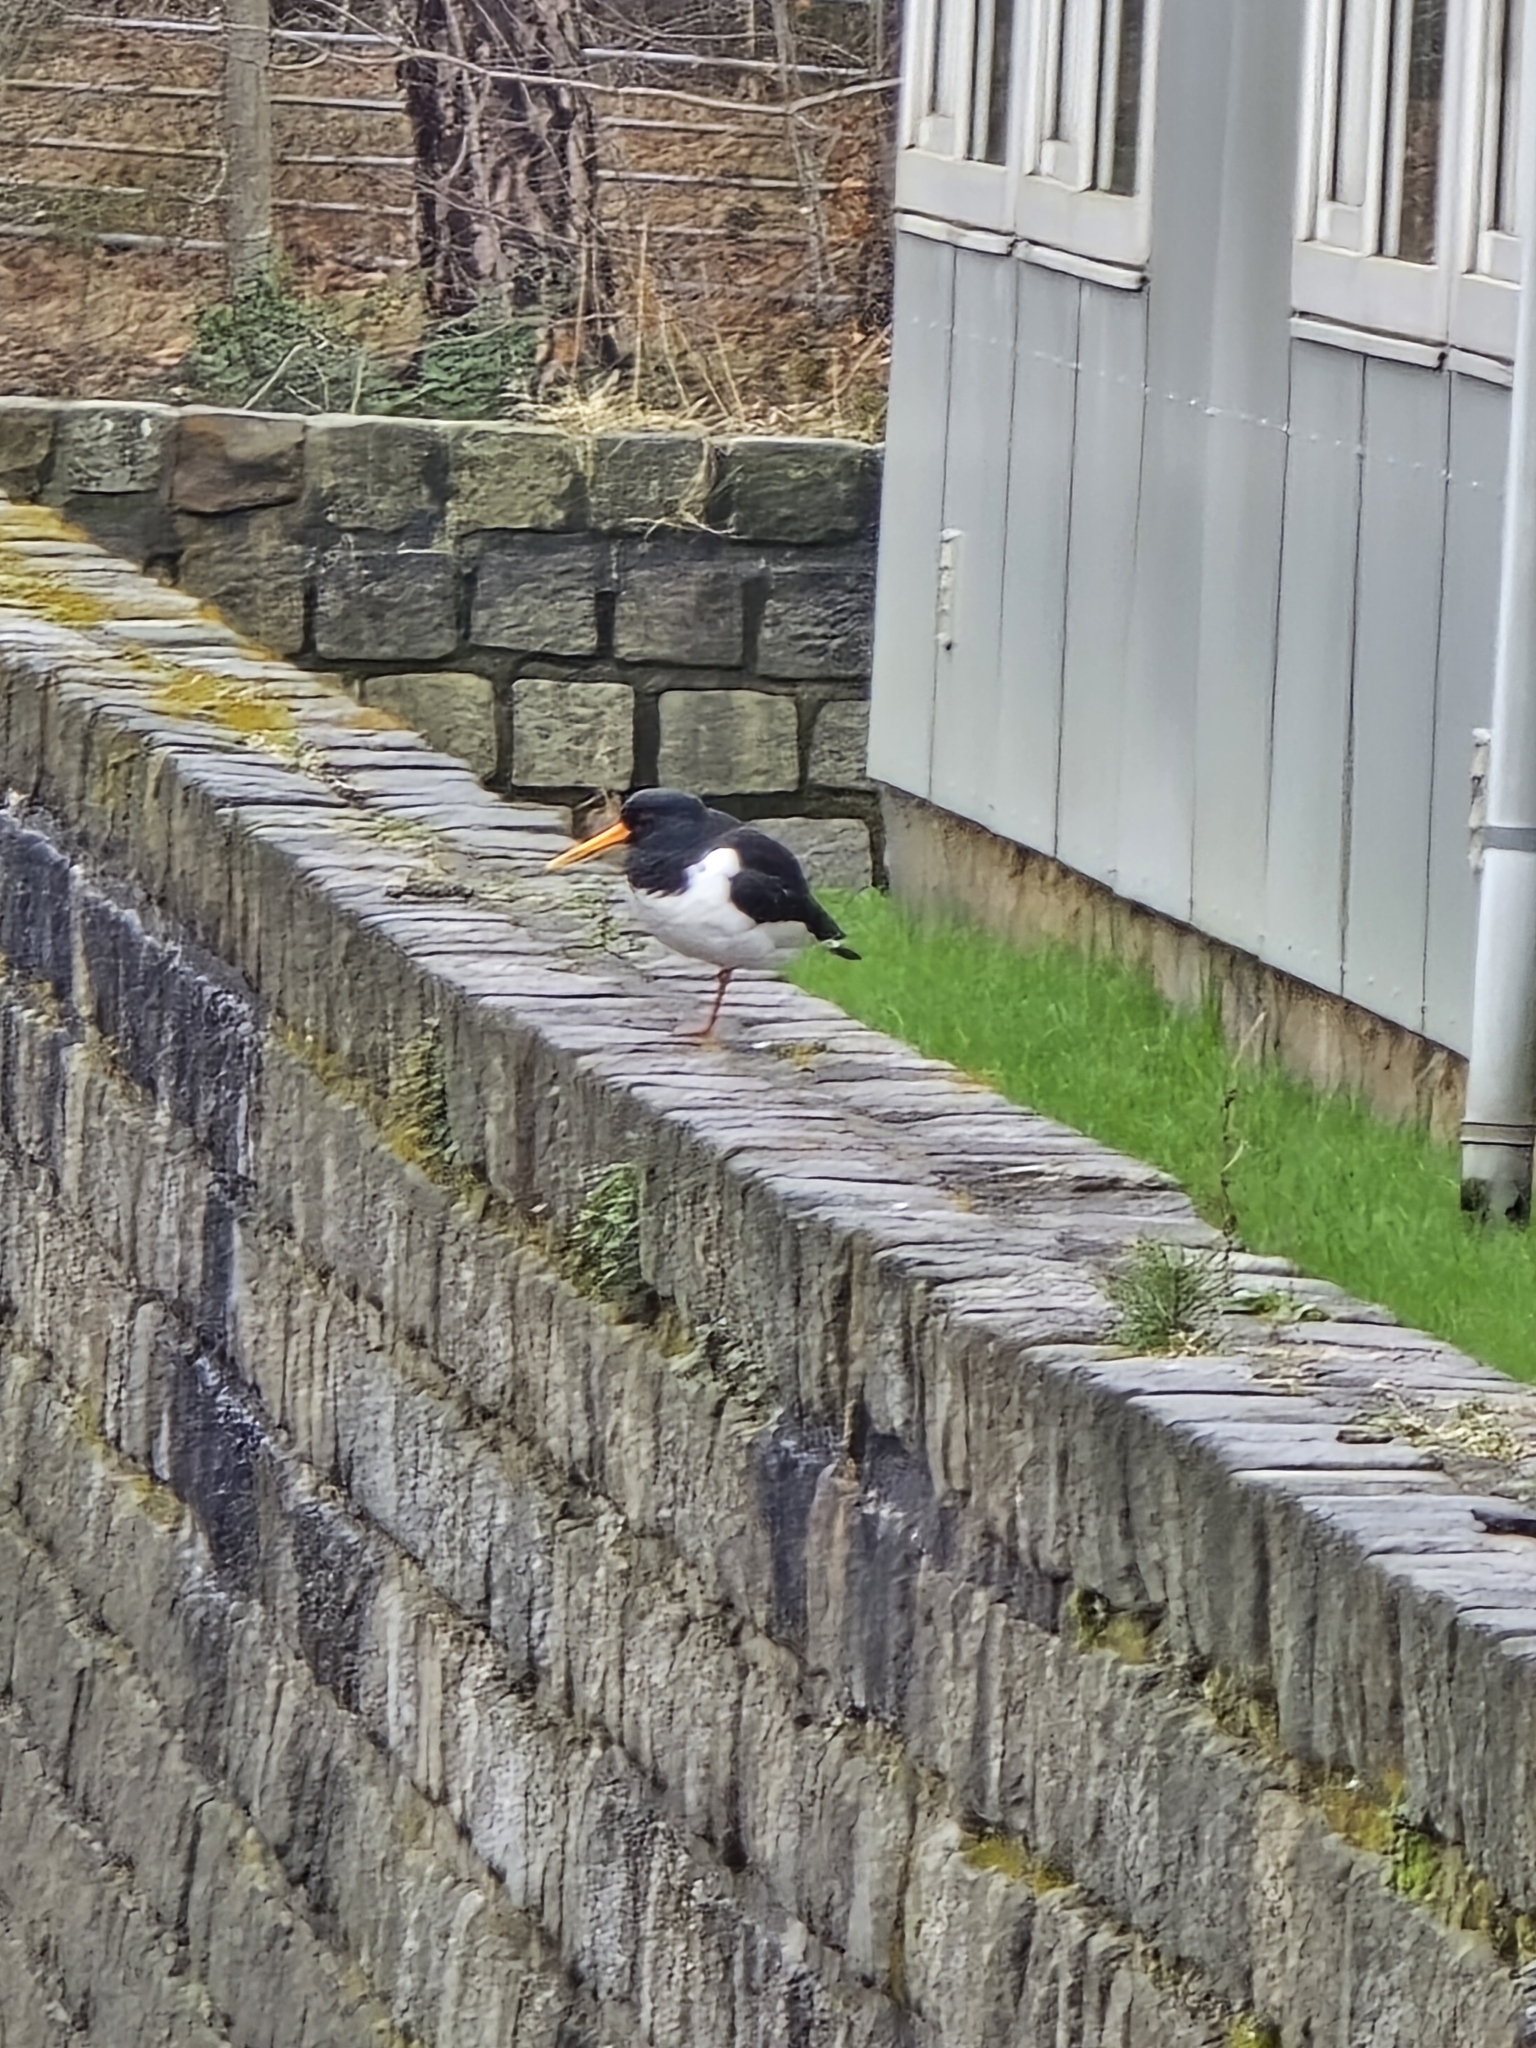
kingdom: Animalia
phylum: Chordata
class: Aves
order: Charadriiformes
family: Haematopodidae
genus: Haematopus
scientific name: Haematopus ostralegus
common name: Eurasian oystercatcher
